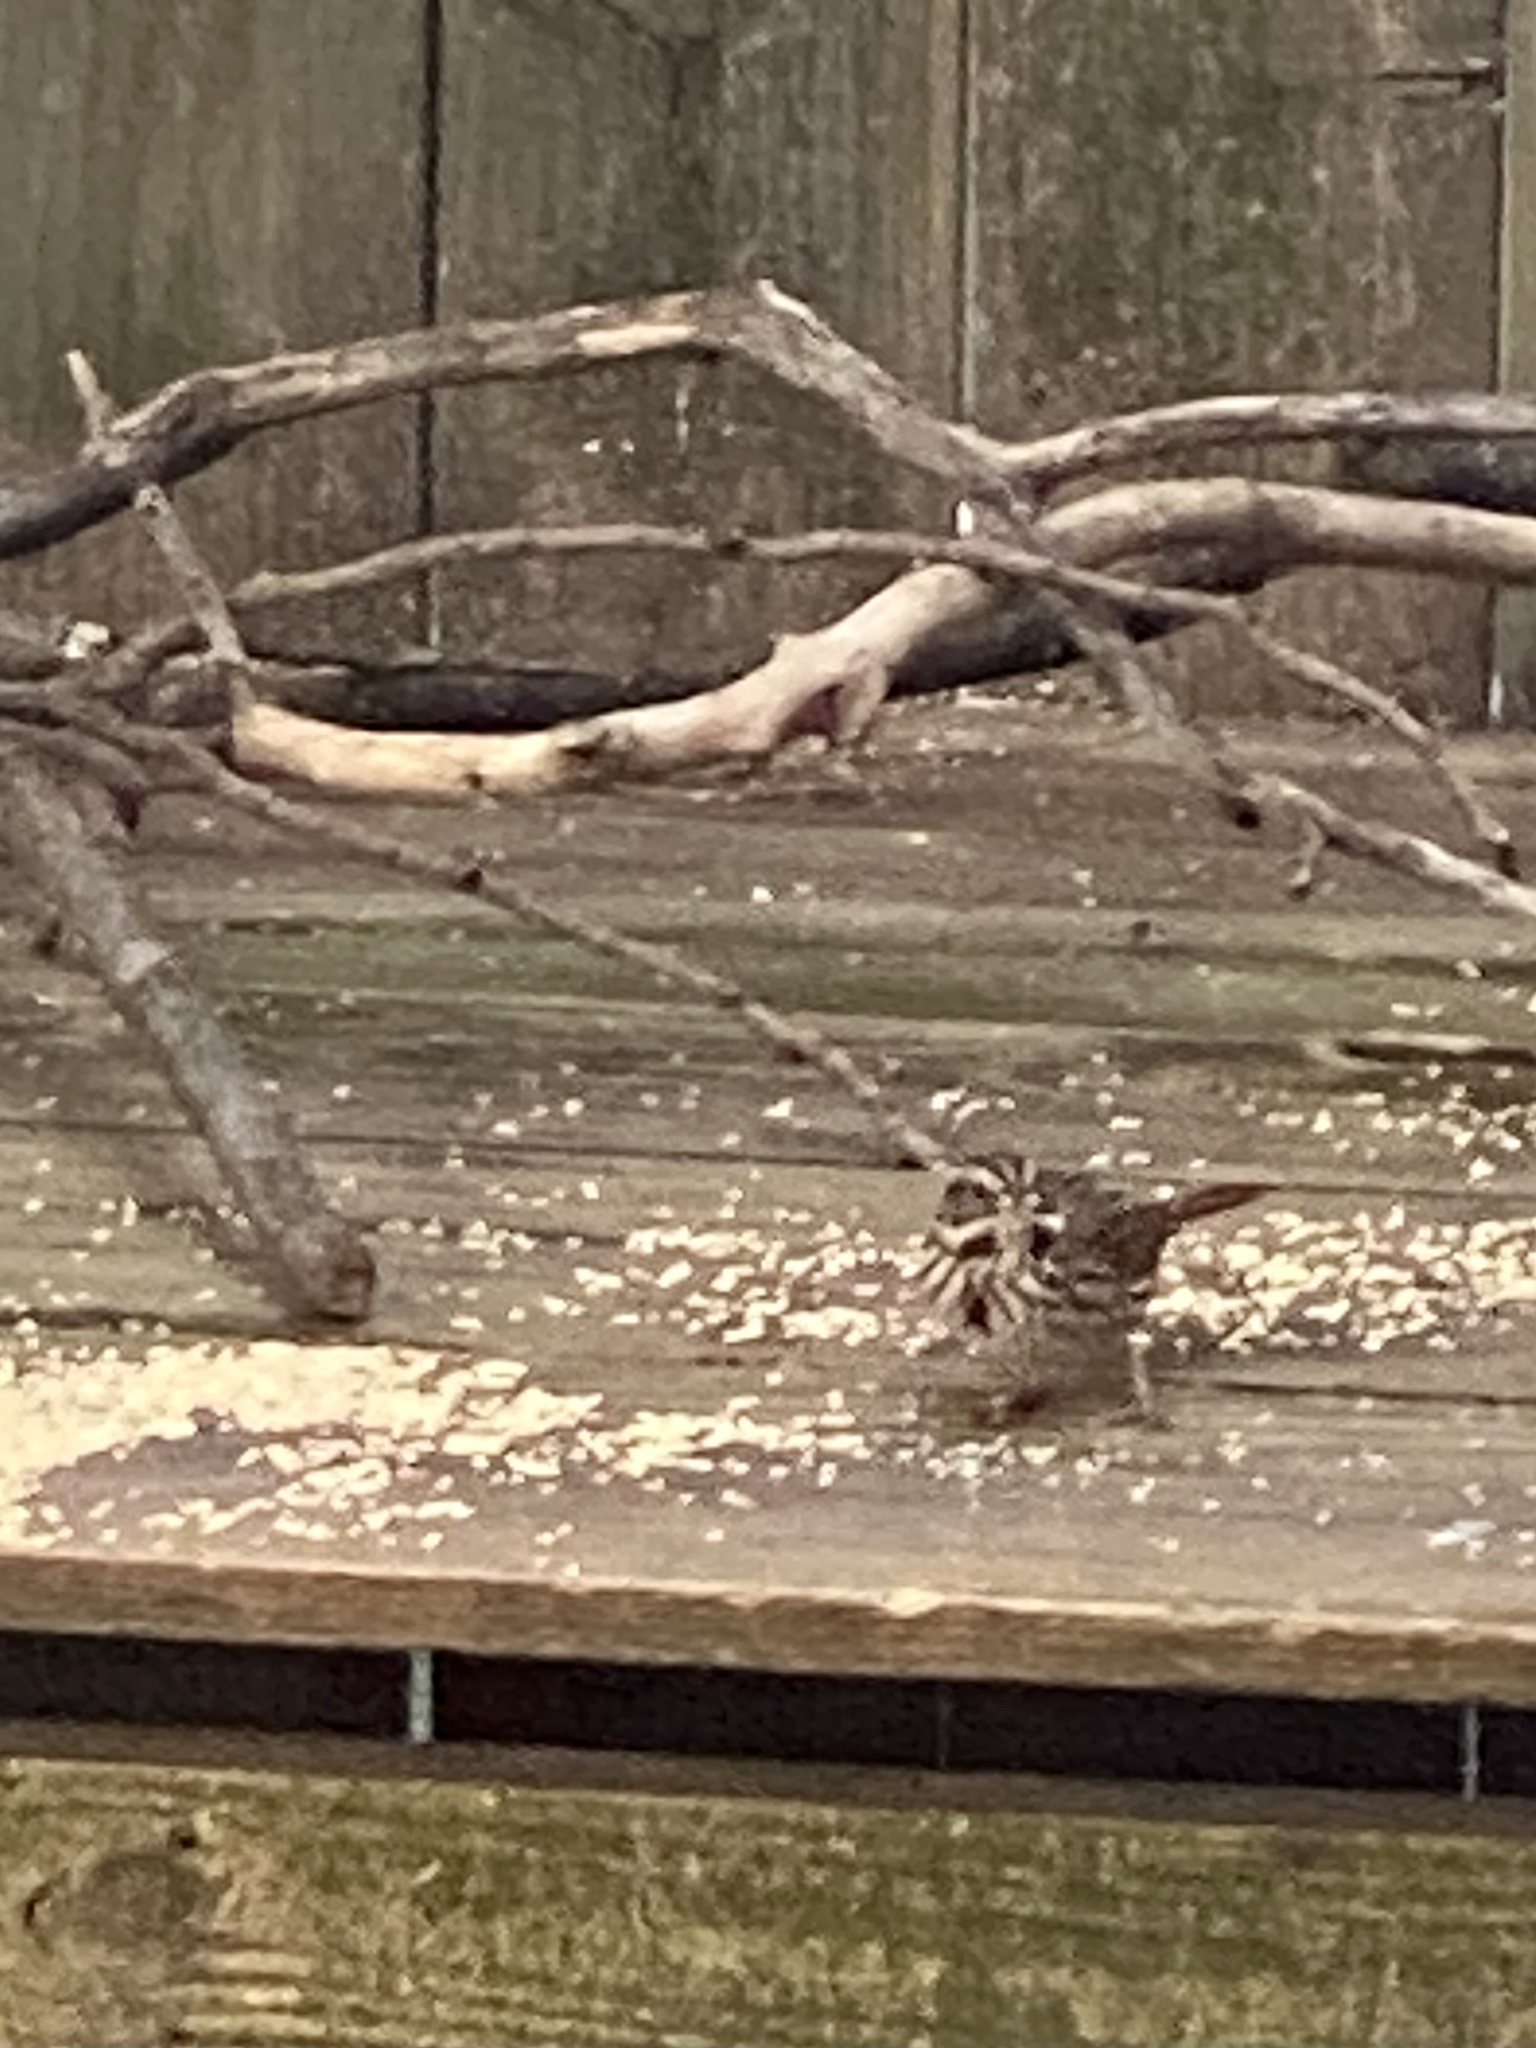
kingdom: Animalia
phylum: Chordata
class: Aves
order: Passeriformes
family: Passerellidae
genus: Melospiza
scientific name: Melospiza melodia
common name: Song sparrow
